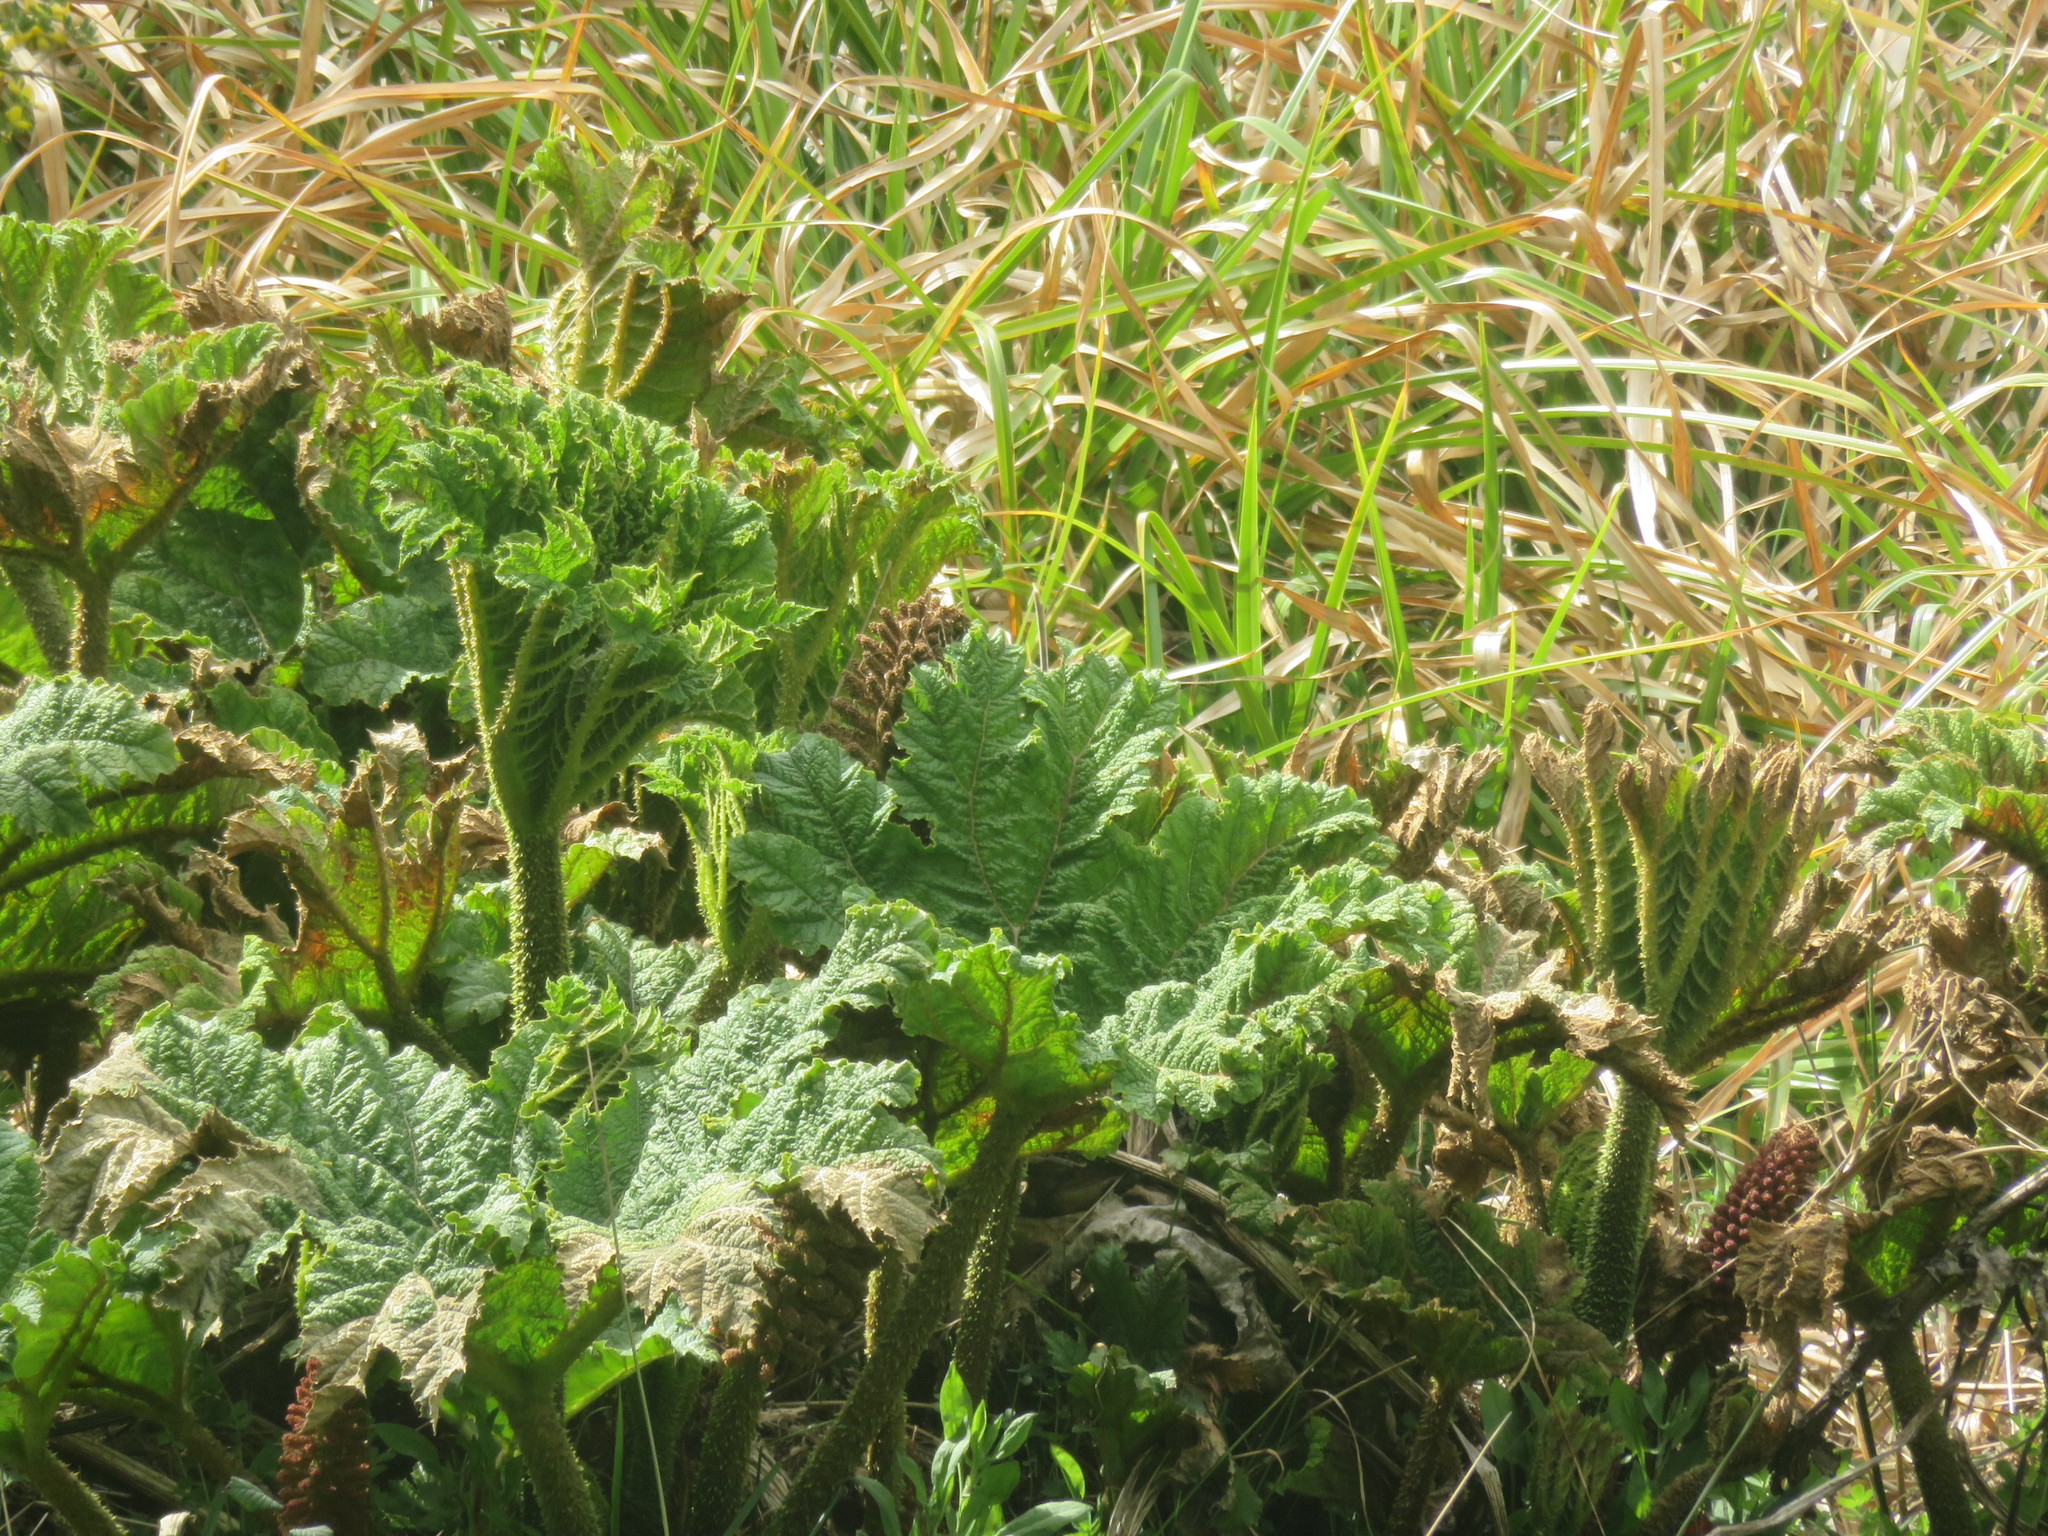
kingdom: Plantae
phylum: Tracheophyta
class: Magnoliopsida
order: Gunnerales
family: Gunneraceae
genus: Gunnera
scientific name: Gunnera tinctoria
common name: Giant-rhubarb
